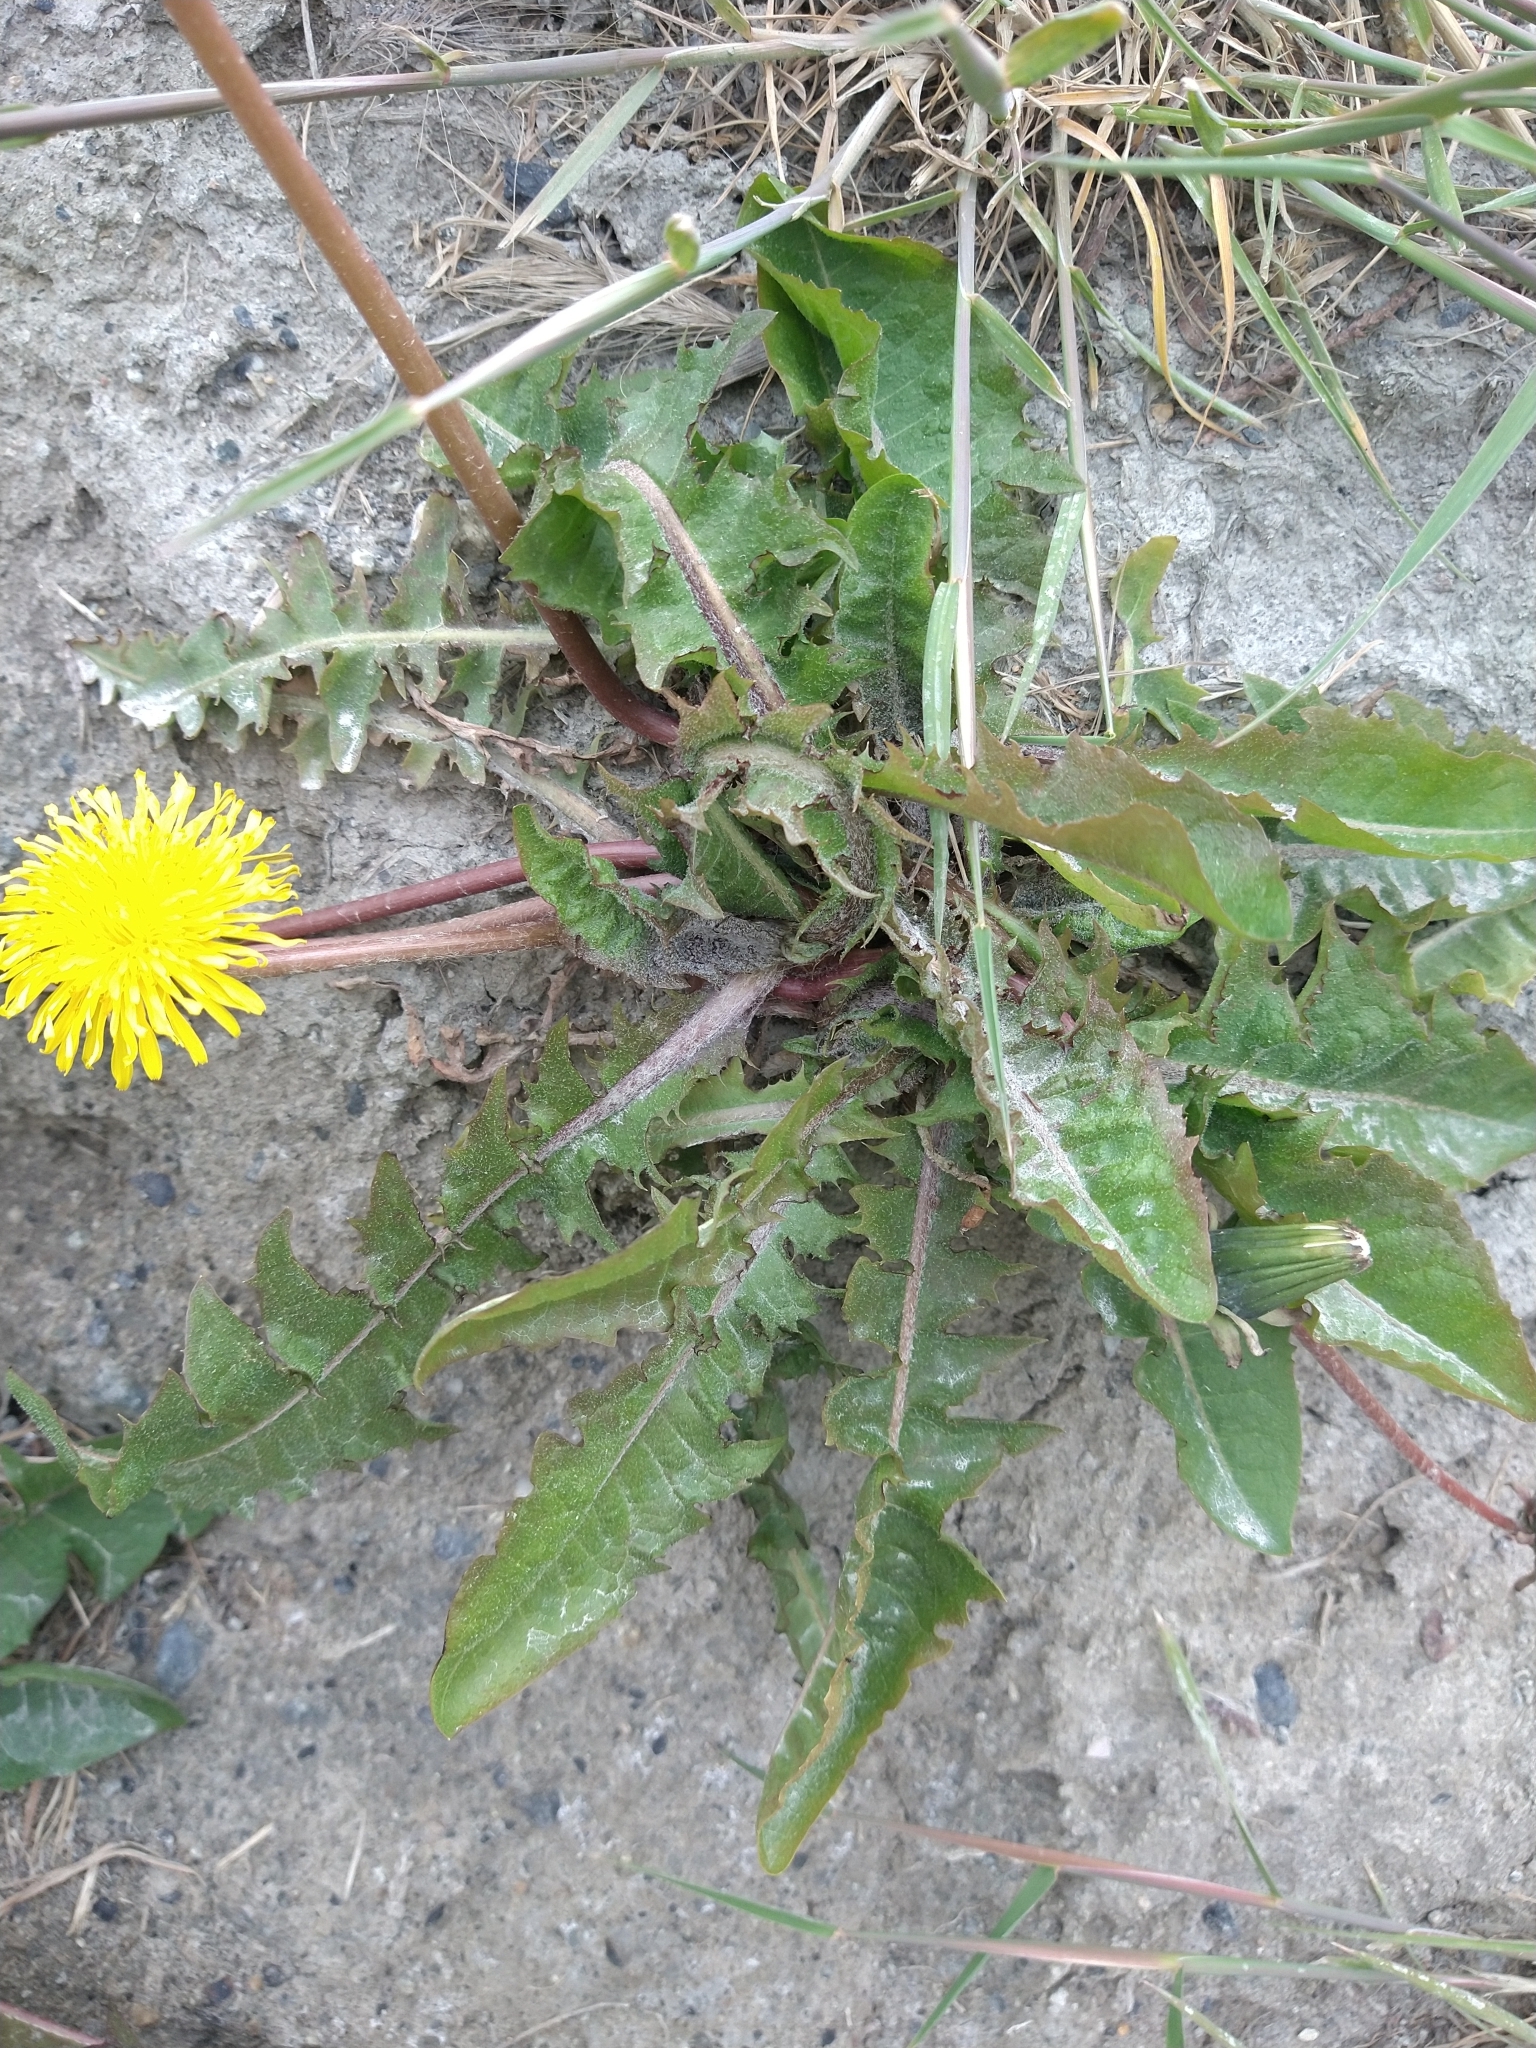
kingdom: Plantae
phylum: Tracheophyta
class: Magnoliopsida
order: Asterales
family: Asteraceae
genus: Taraxacum
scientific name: Taraxacum officinale
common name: Common dandelion
